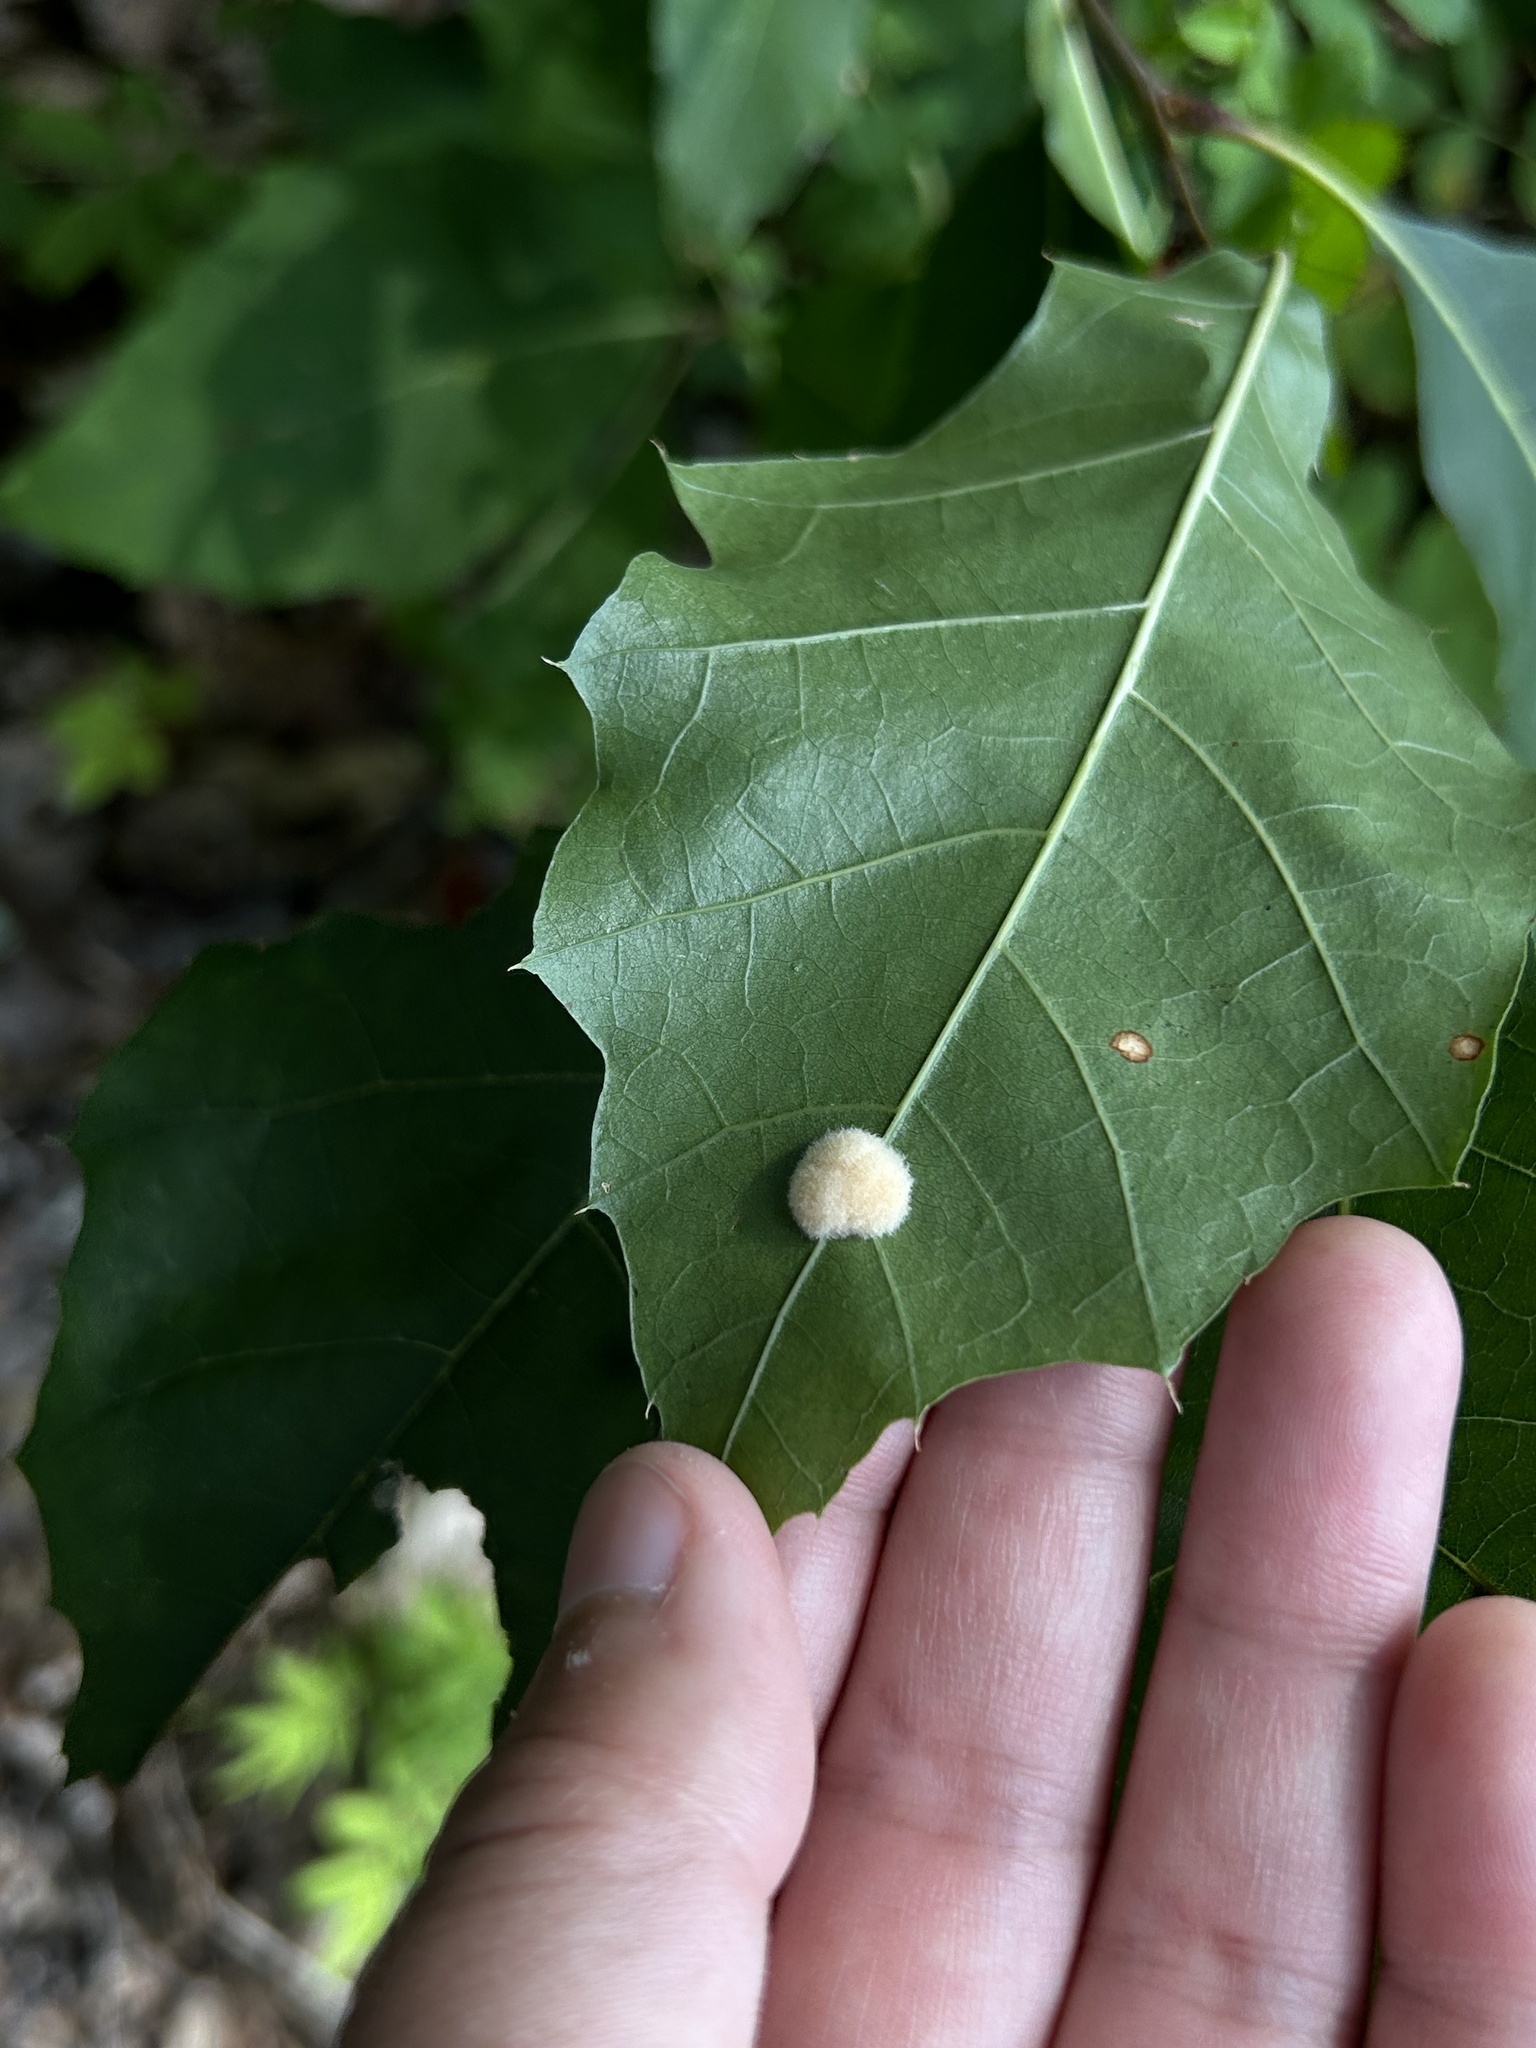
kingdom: Animalia
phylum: Arthropoda
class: Insecta
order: Hymenoptera
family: Cynipidae
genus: Callirhytis
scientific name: Callirhytis
